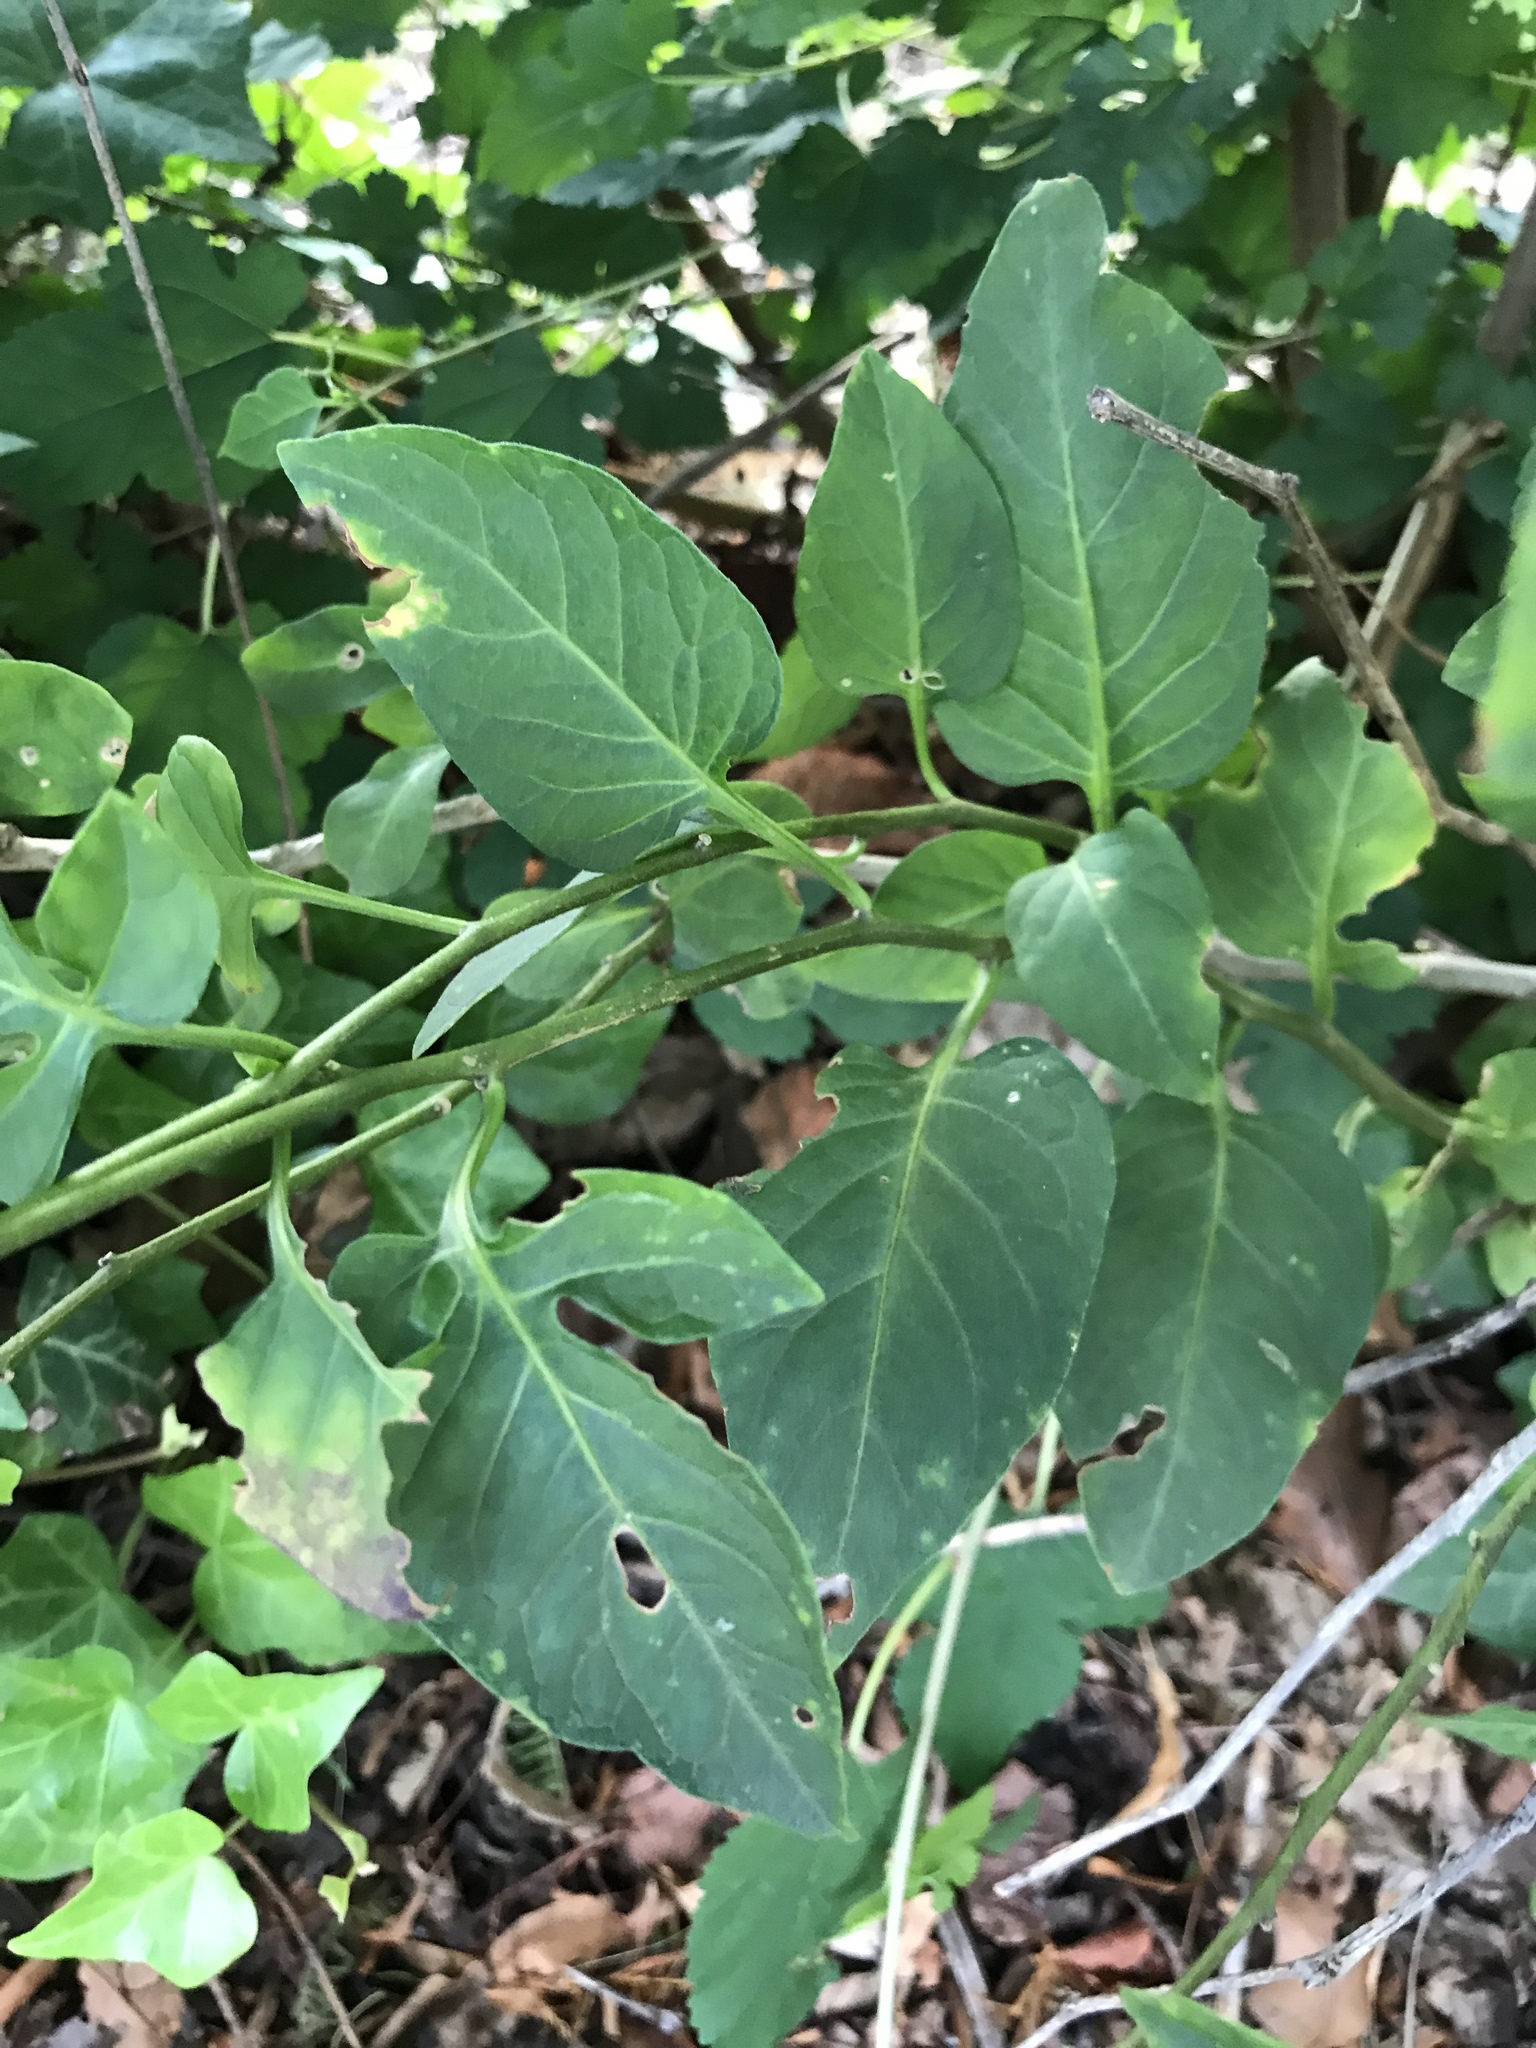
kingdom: Plantae
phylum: Tracheophyta
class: Magnoliopsida
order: Solanales
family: Solanaceae
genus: Solanum
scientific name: Solanum dulcamara
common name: Climbing nightshade
